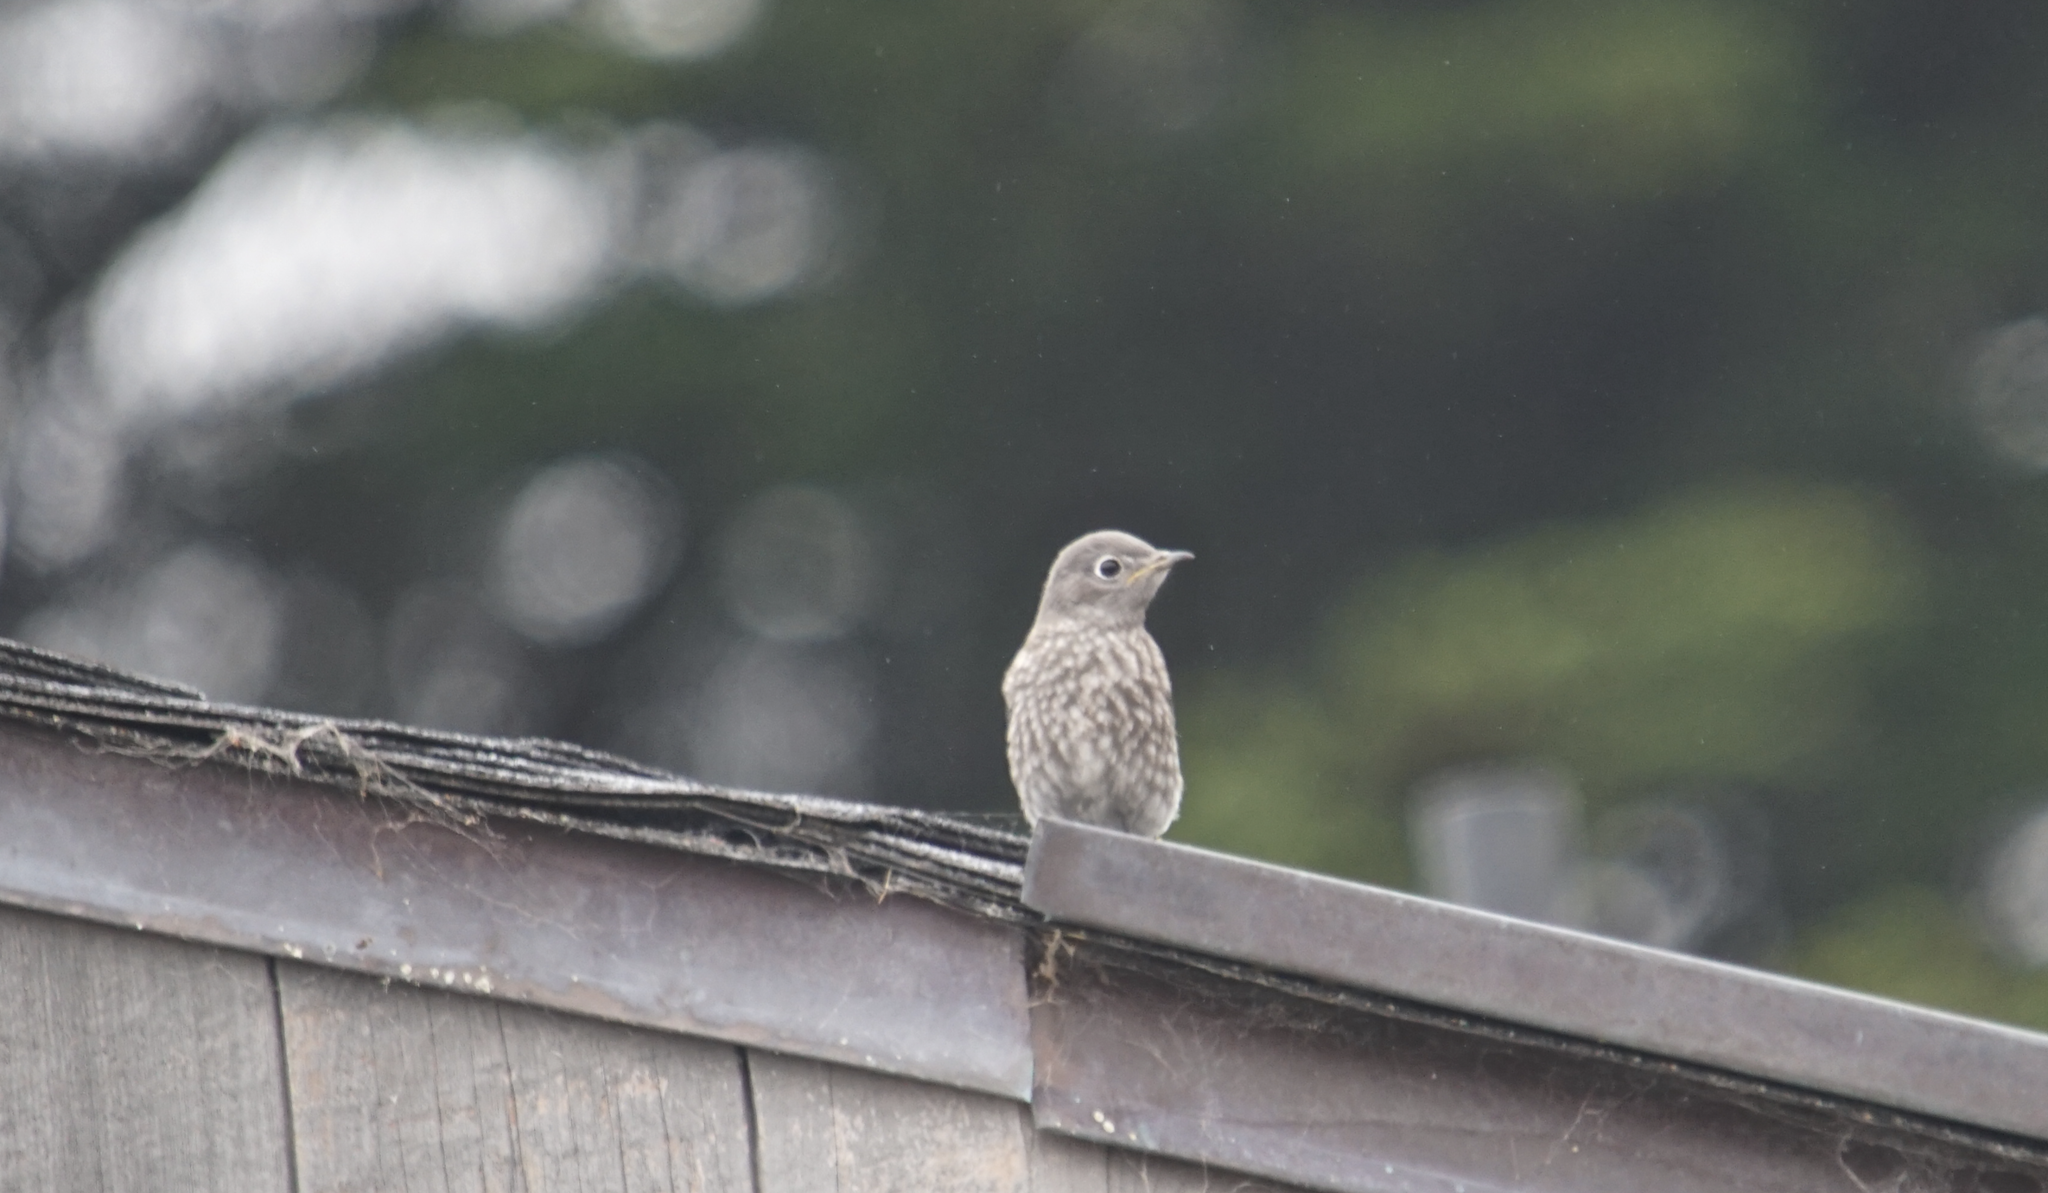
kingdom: Animalia
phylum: Chordata
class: Aves
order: Passeriformes
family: Turdidae
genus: Sialia
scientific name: Sialia mexicana
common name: Western bluebird
